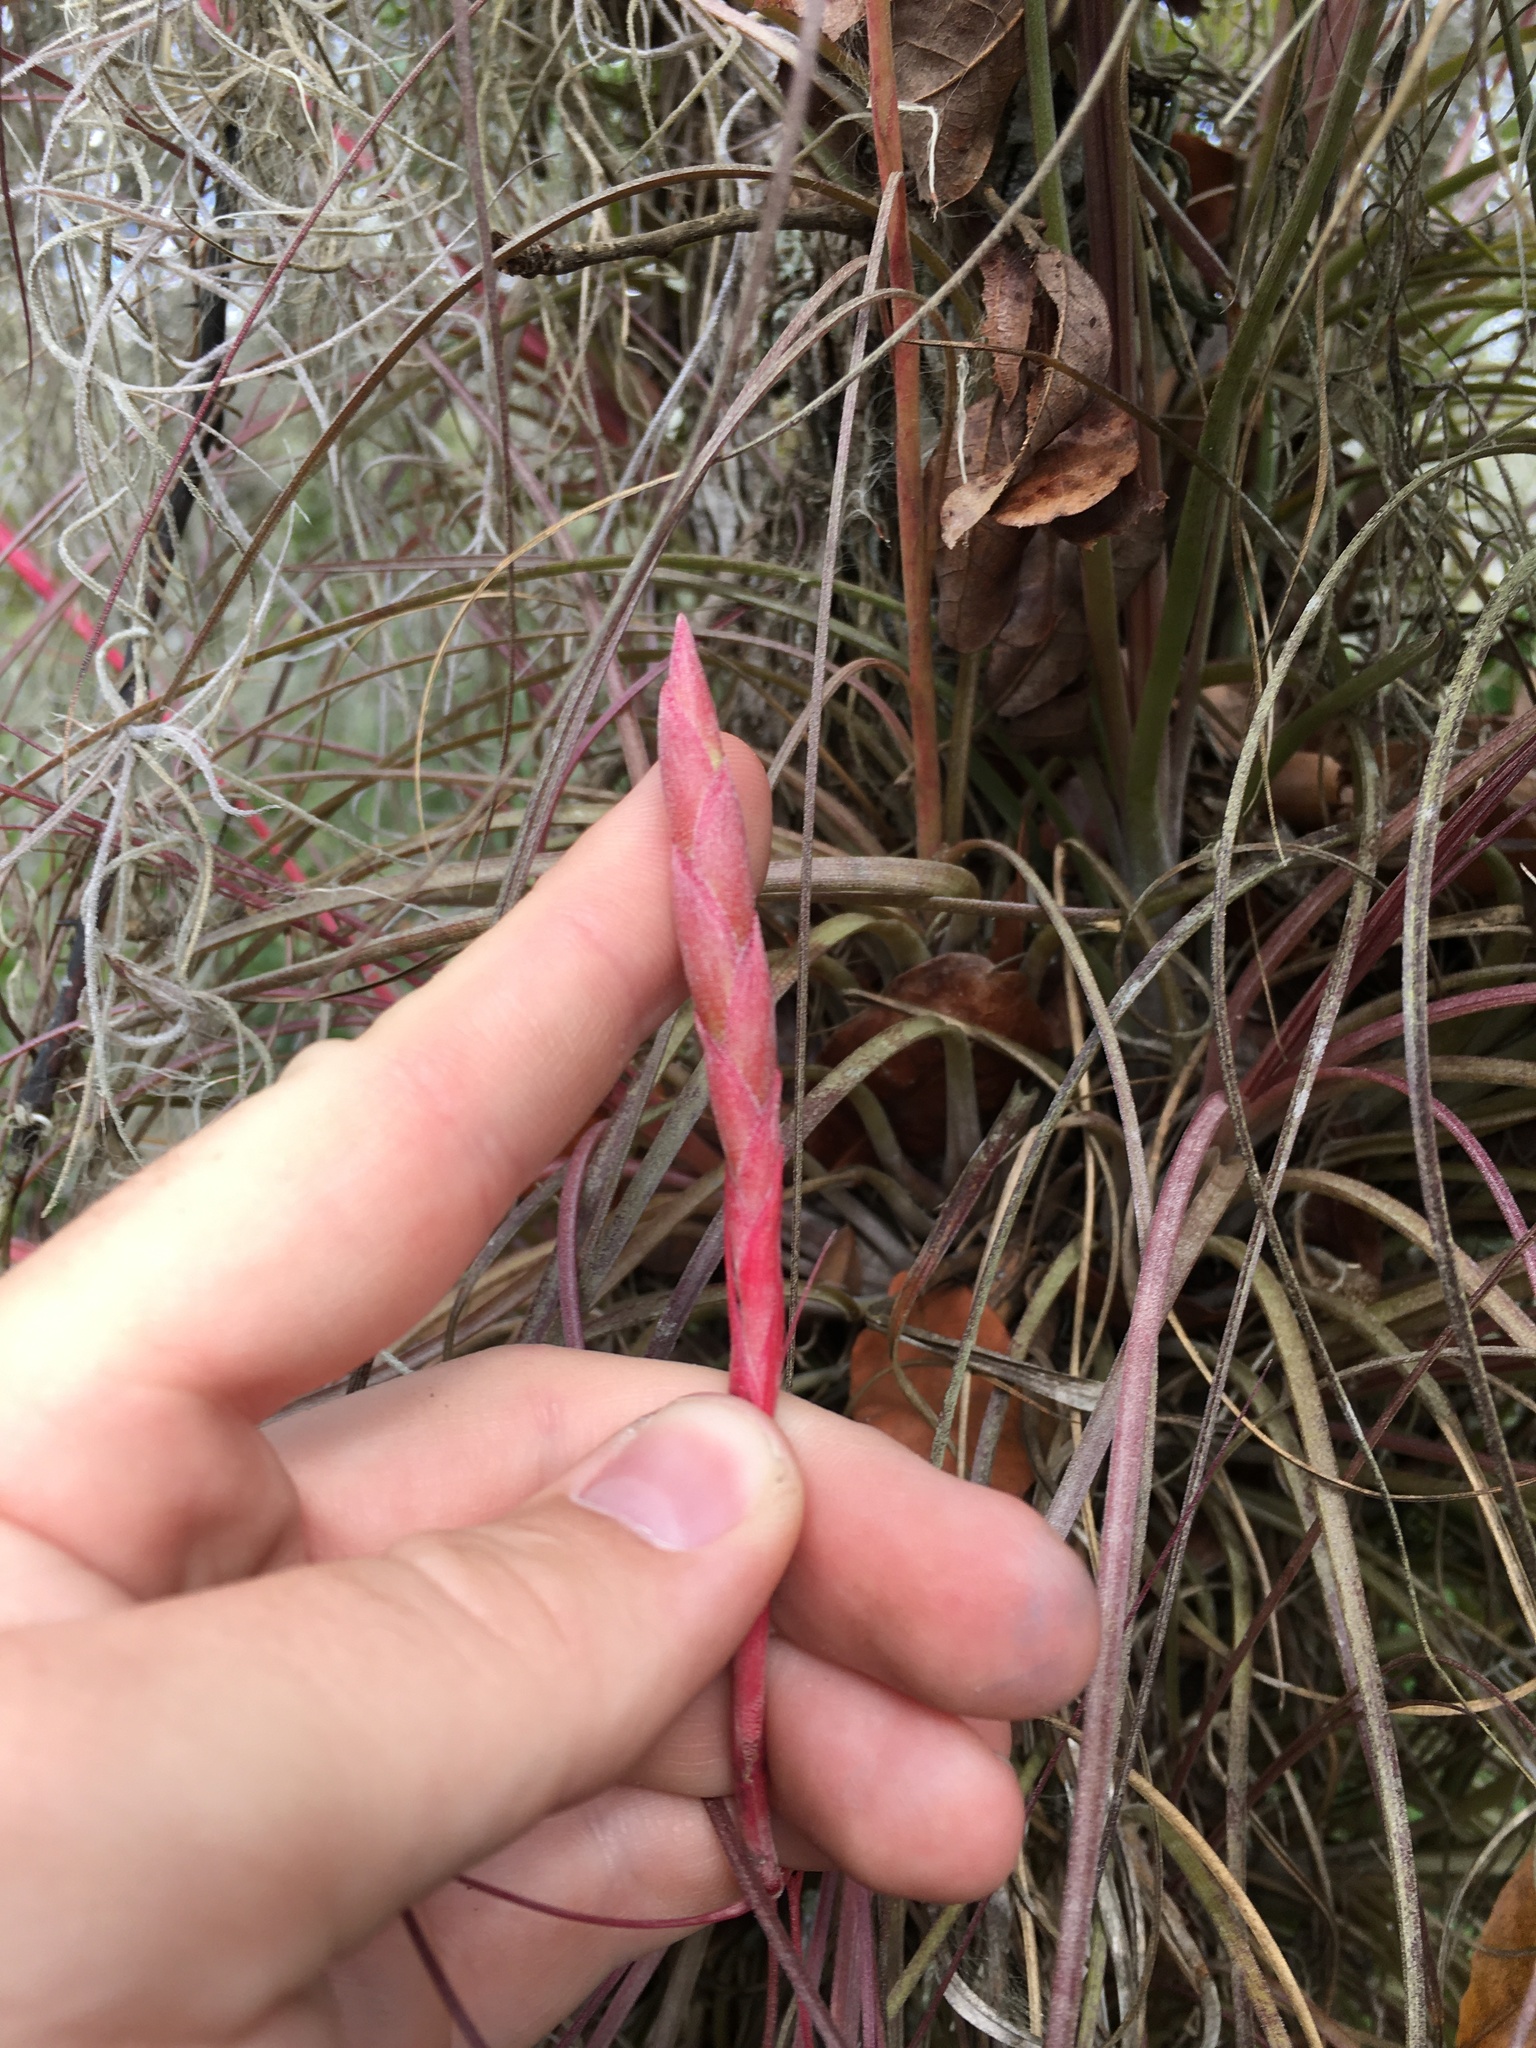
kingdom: Plantae
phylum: Tracheophyta
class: Liliopsida
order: Poales
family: Bromeliaceae
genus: Tillandsia
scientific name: Tillandsia simulata
